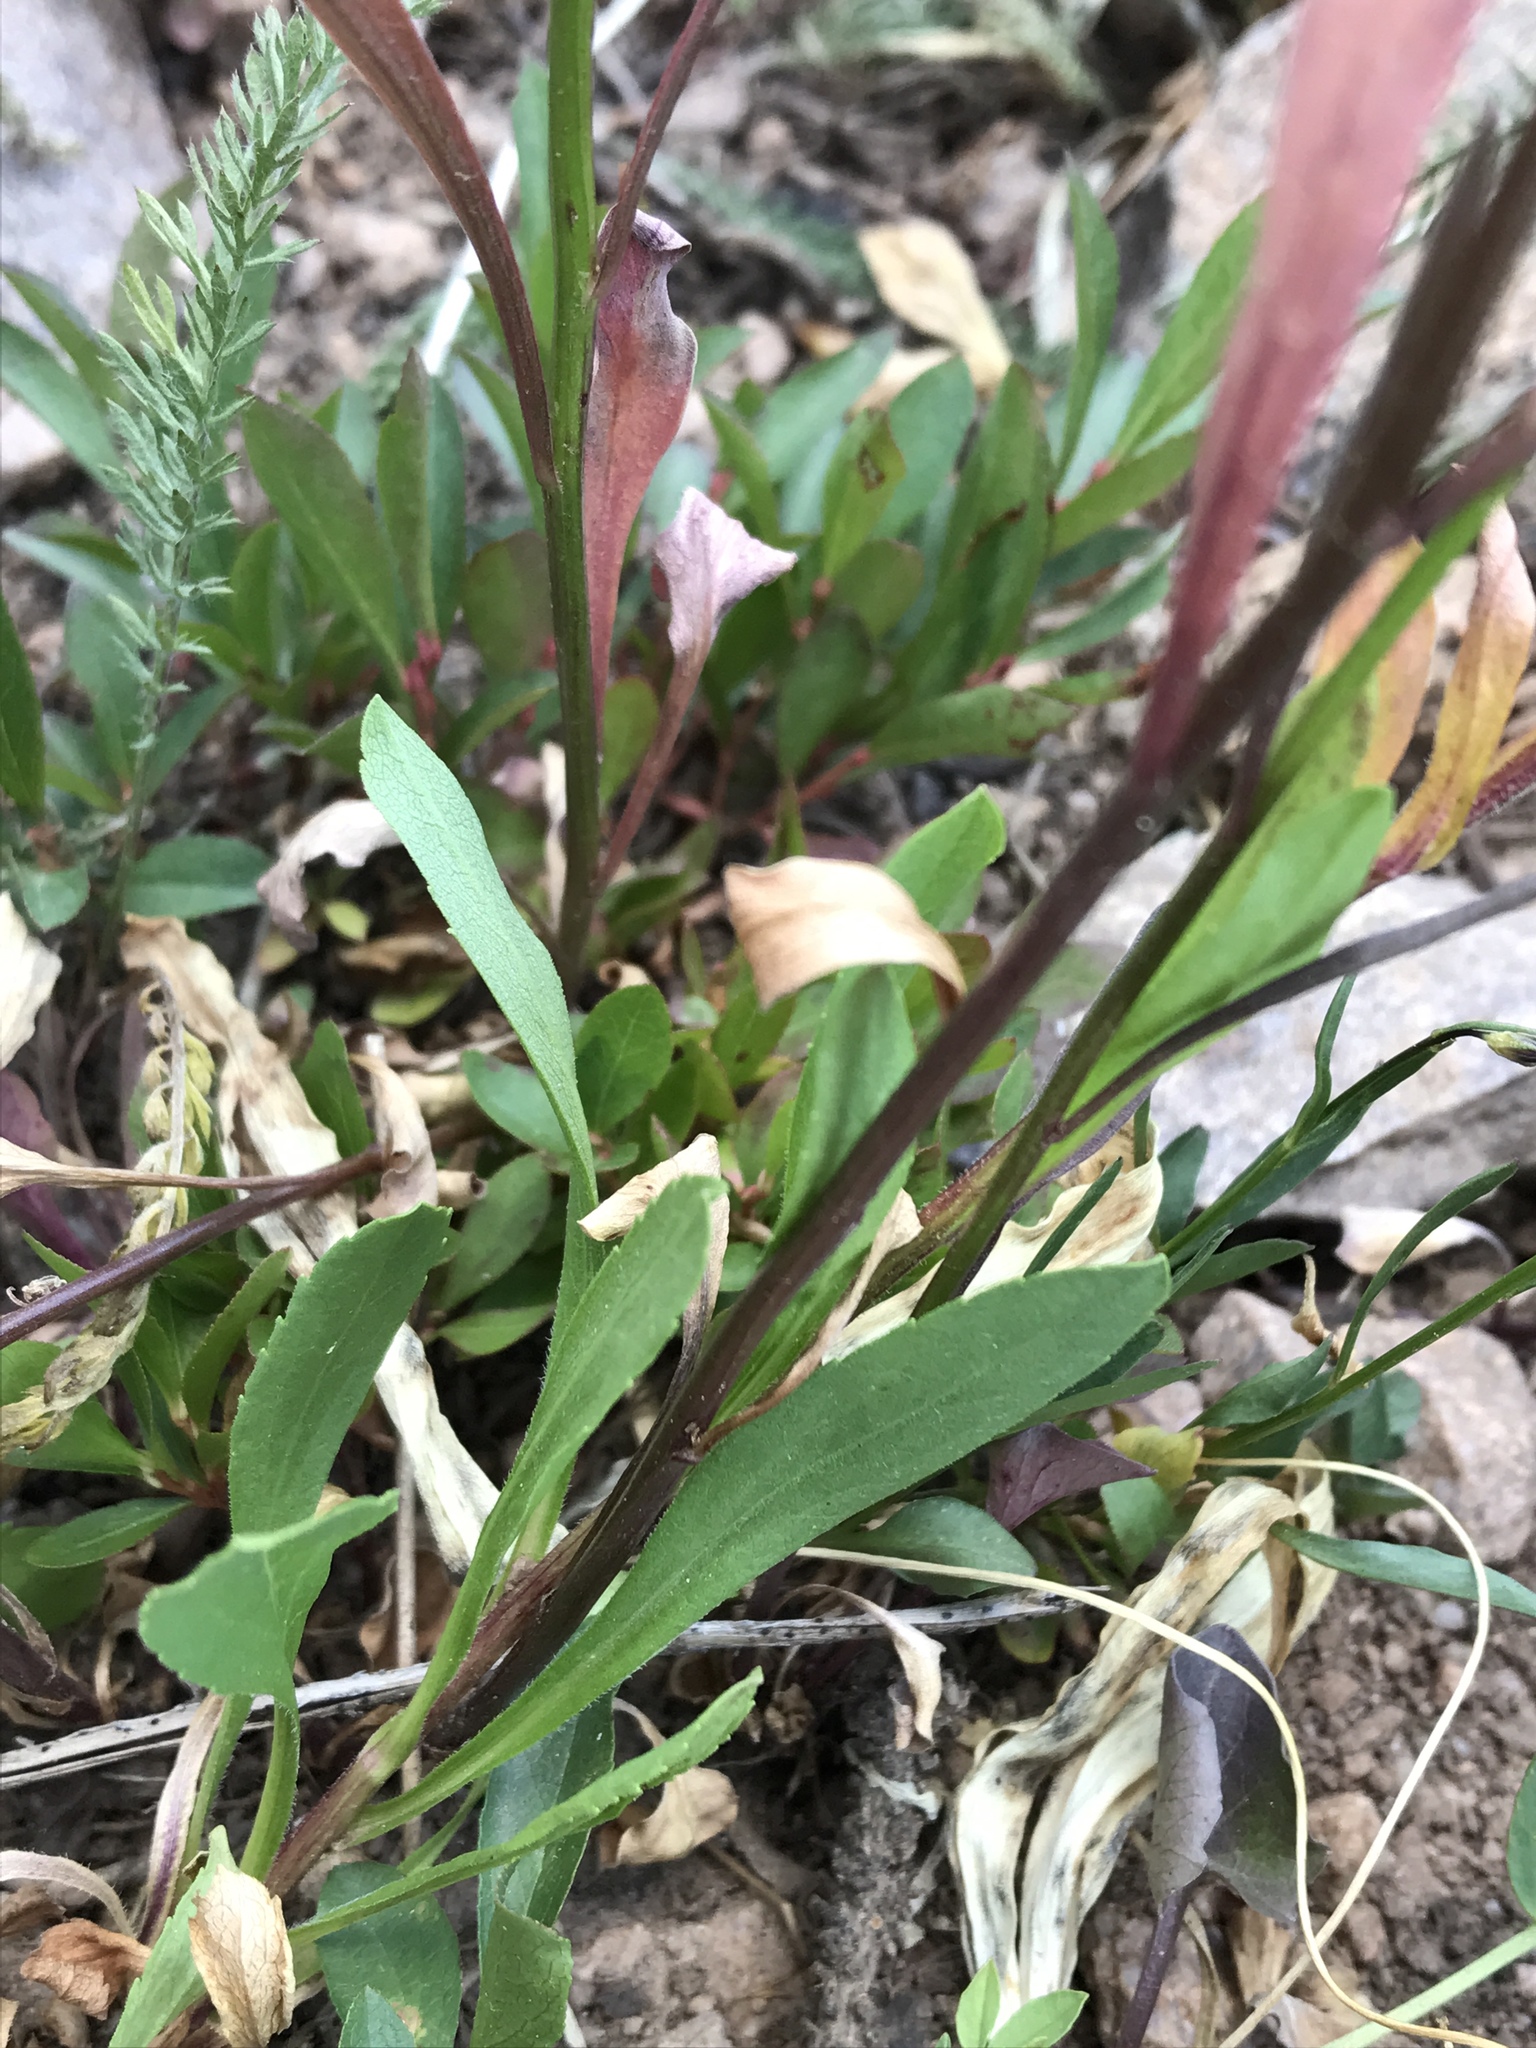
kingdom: Plantae
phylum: Tracheophyta
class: Magnoliopsida
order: Asterales
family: Campanulaceae
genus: Campanula
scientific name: Campanula petiolata
